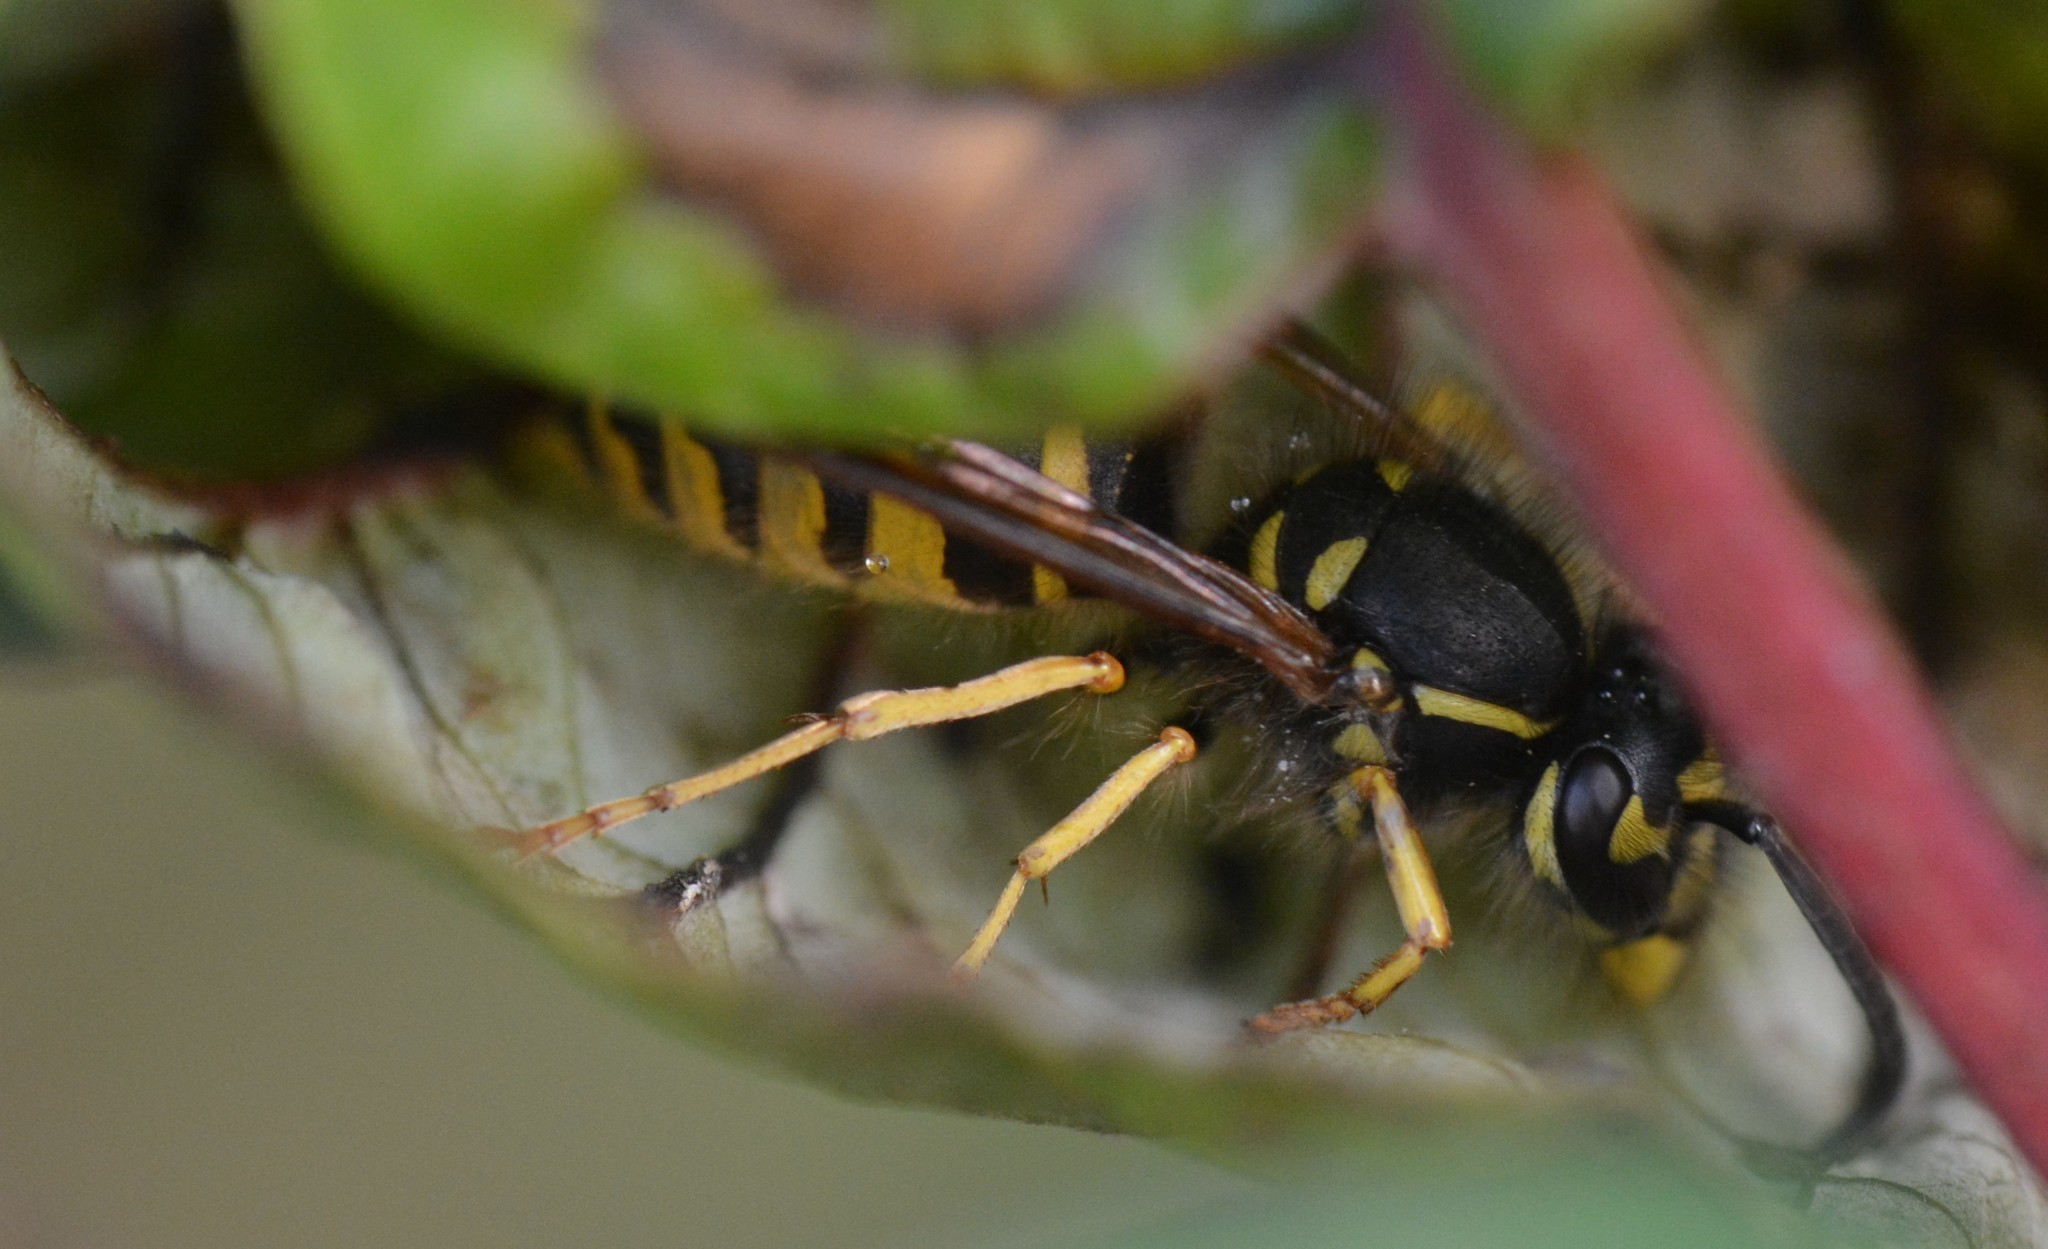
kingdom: Animalia
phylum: Arthropoda
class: Insecta
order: Hymenoptera
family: Vespidae
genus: Vespula
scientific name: Vespula alascensis
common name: Alaska yellowjacket
